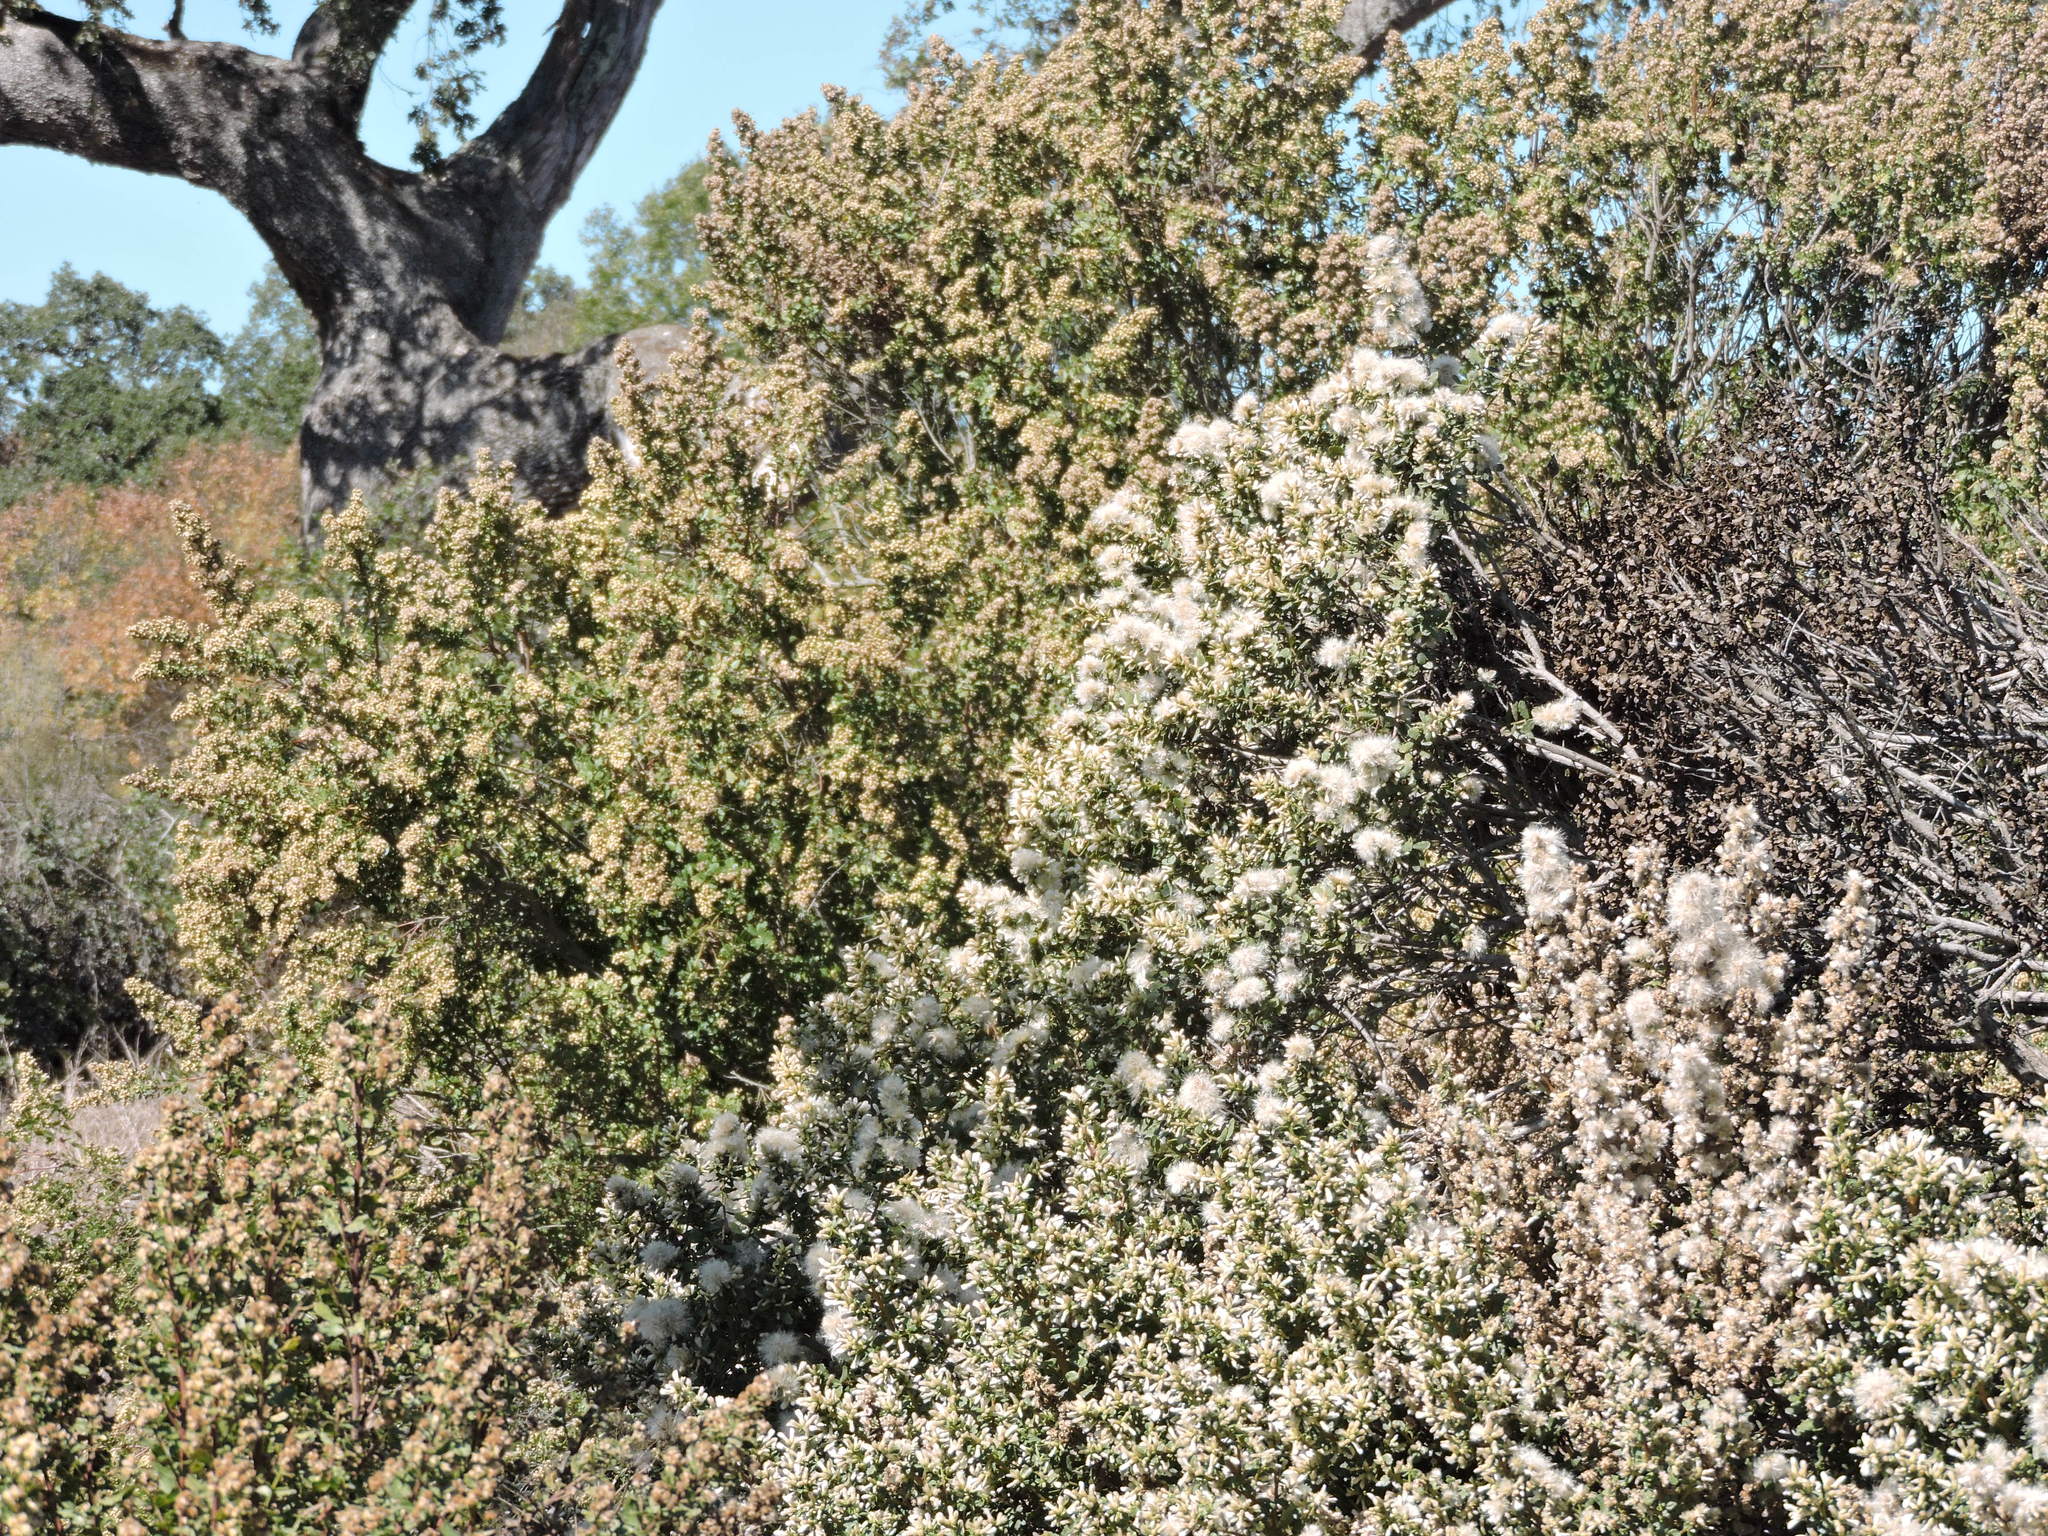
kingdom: Plantae
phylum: Tracheophyta
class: Magnoliopsida
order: Asterales
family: Asteraceae
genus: Baccharis
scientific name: Baccharis pilularis
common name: Coyotebrush
